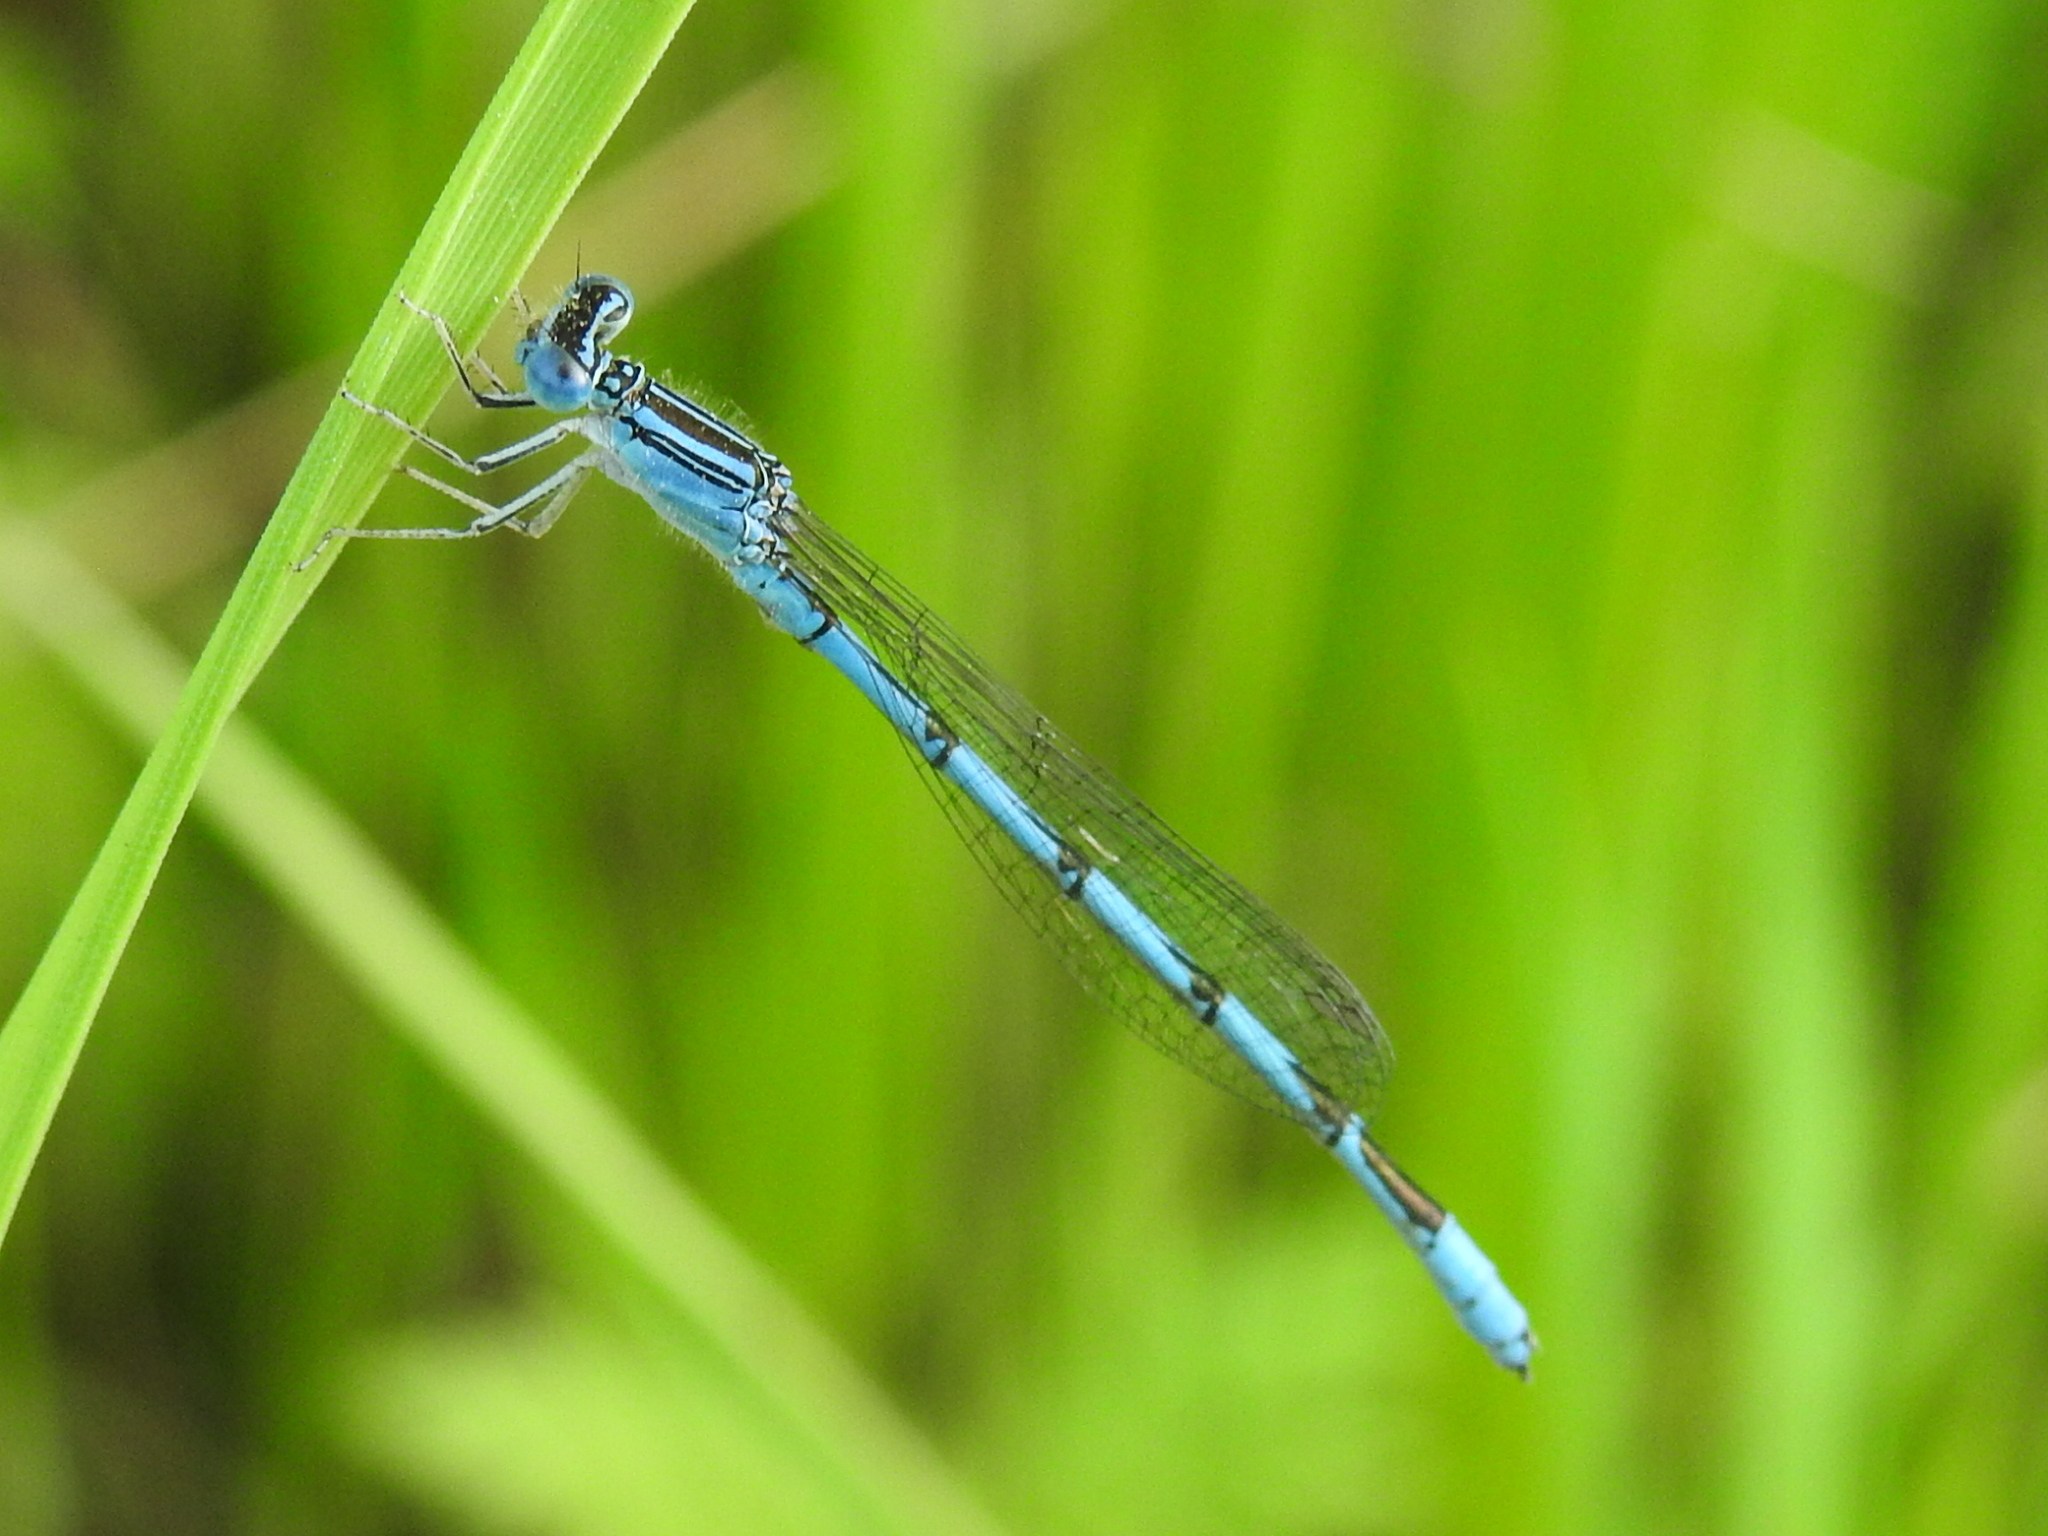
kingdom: Animalia
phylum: Arthropoda
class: Insecta
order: Odonata
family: Coenagrionidae
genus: Enallagma
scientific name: Enallagma basidens
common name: Double-striped bluet
